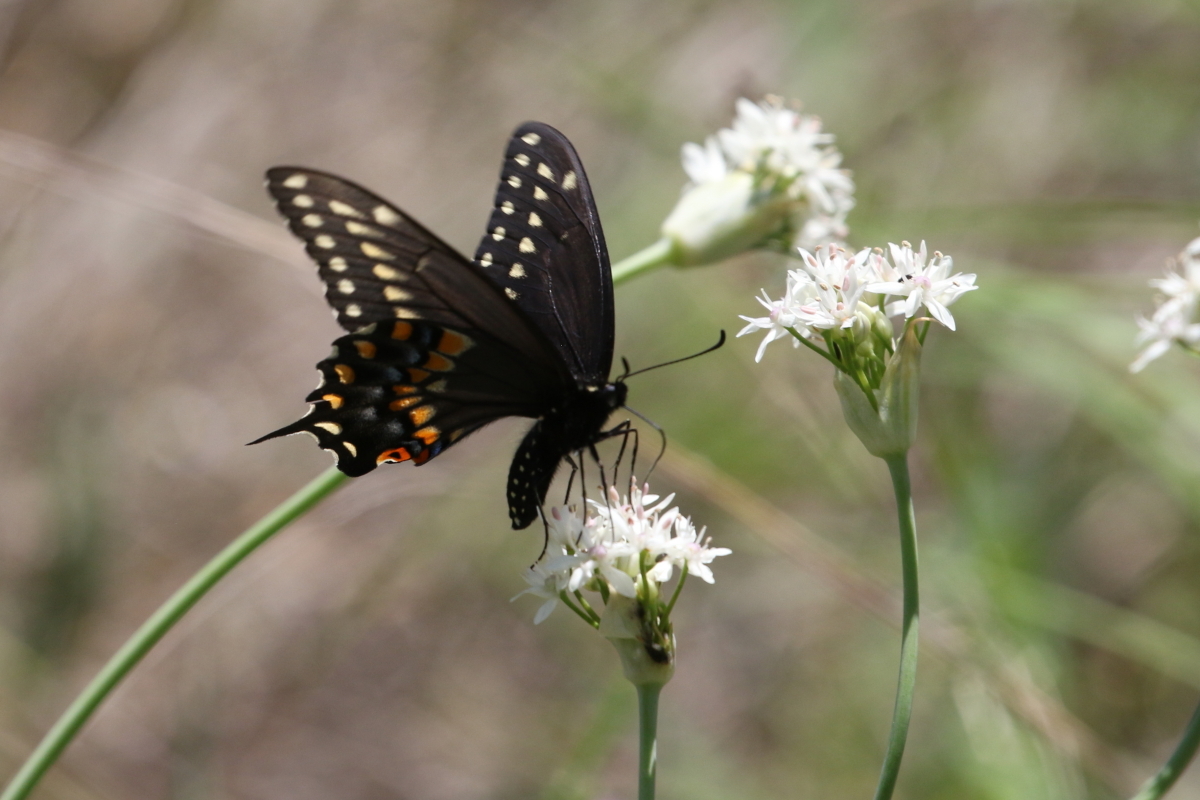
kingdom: Animalia
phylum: Arthropoda
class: Insecta
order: Lepidoptera
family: Papilionidae
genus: Papilio
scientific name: Papilio polyxenes
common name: Black swallowtail
